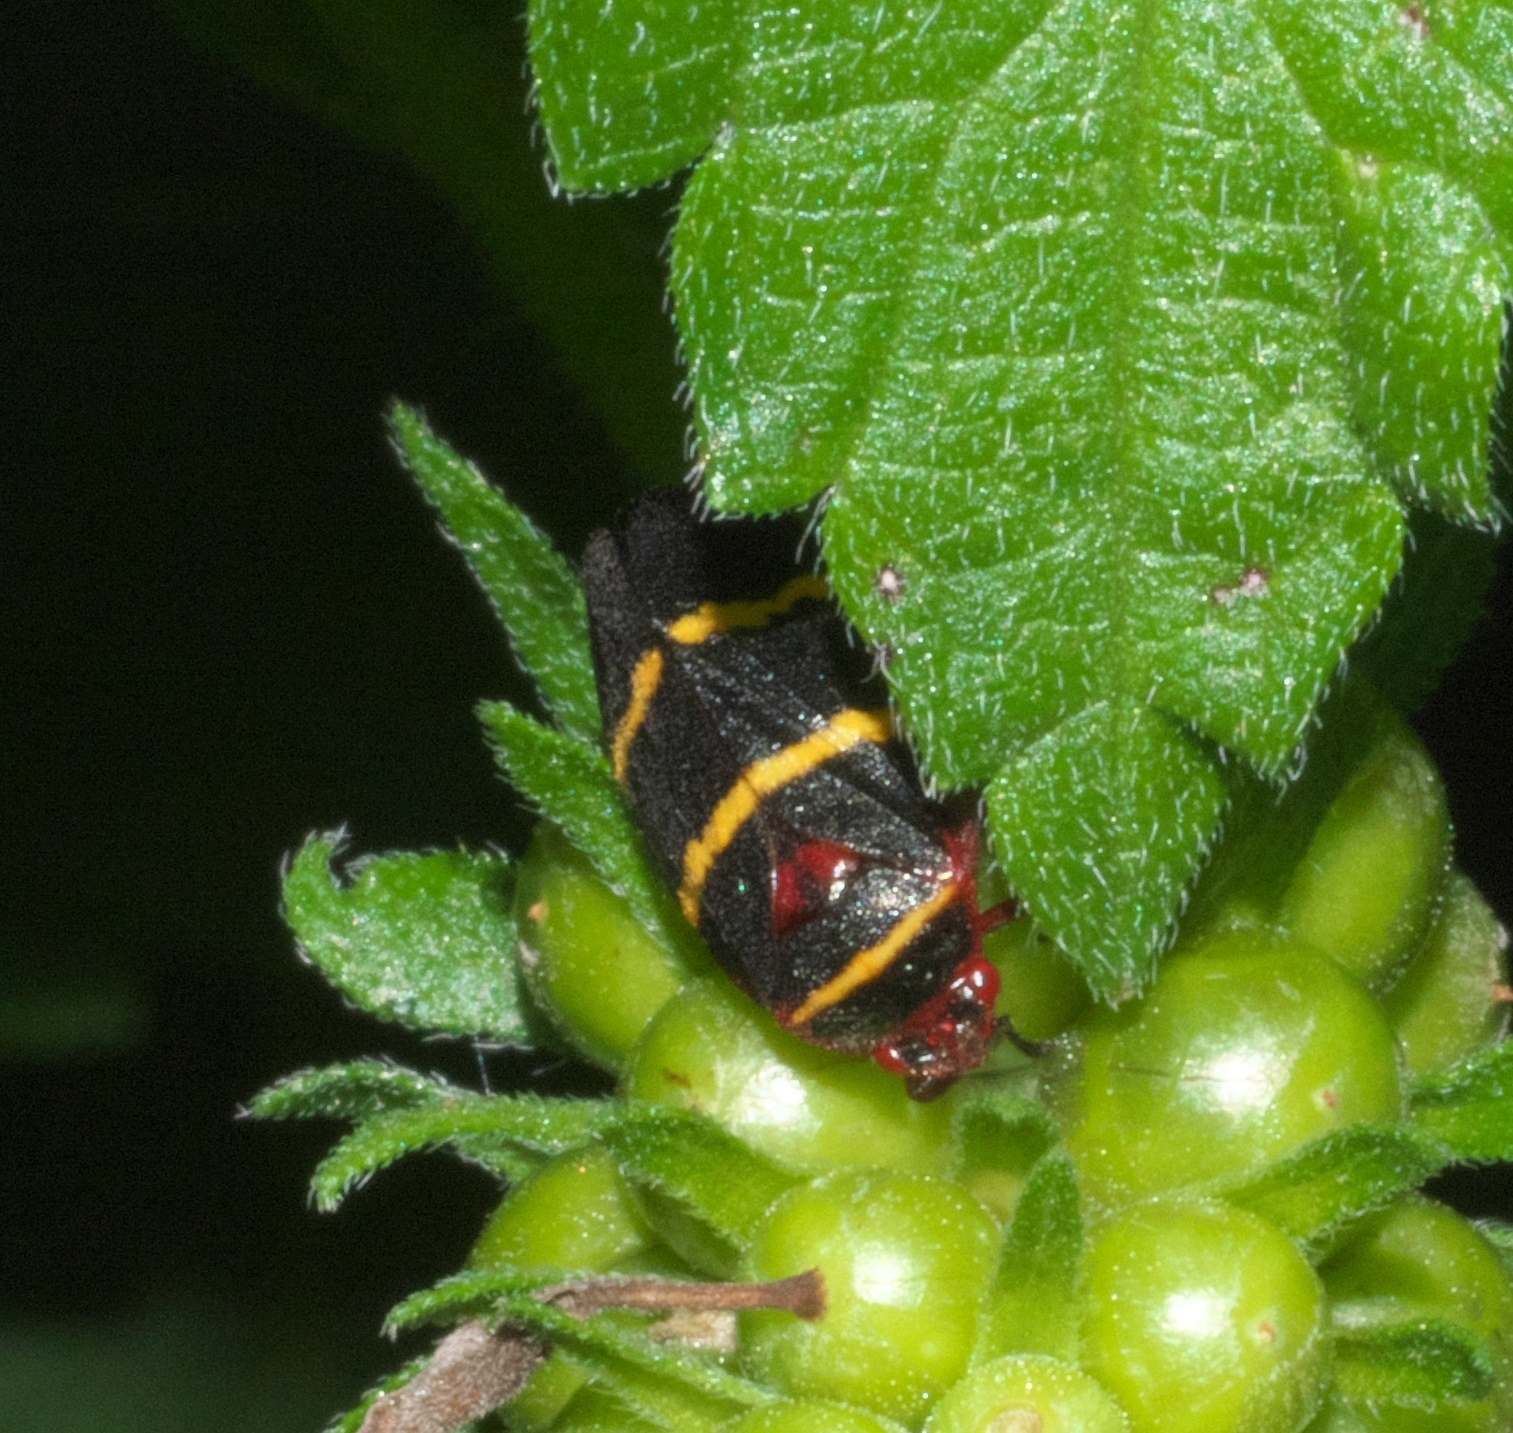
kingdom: Animalia
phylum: Arthropoda
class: Insecta
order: Hemiptera
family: Cercopidae
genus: Prosapia
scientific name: Prosapia bicincta
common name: Twolined spittlebug
